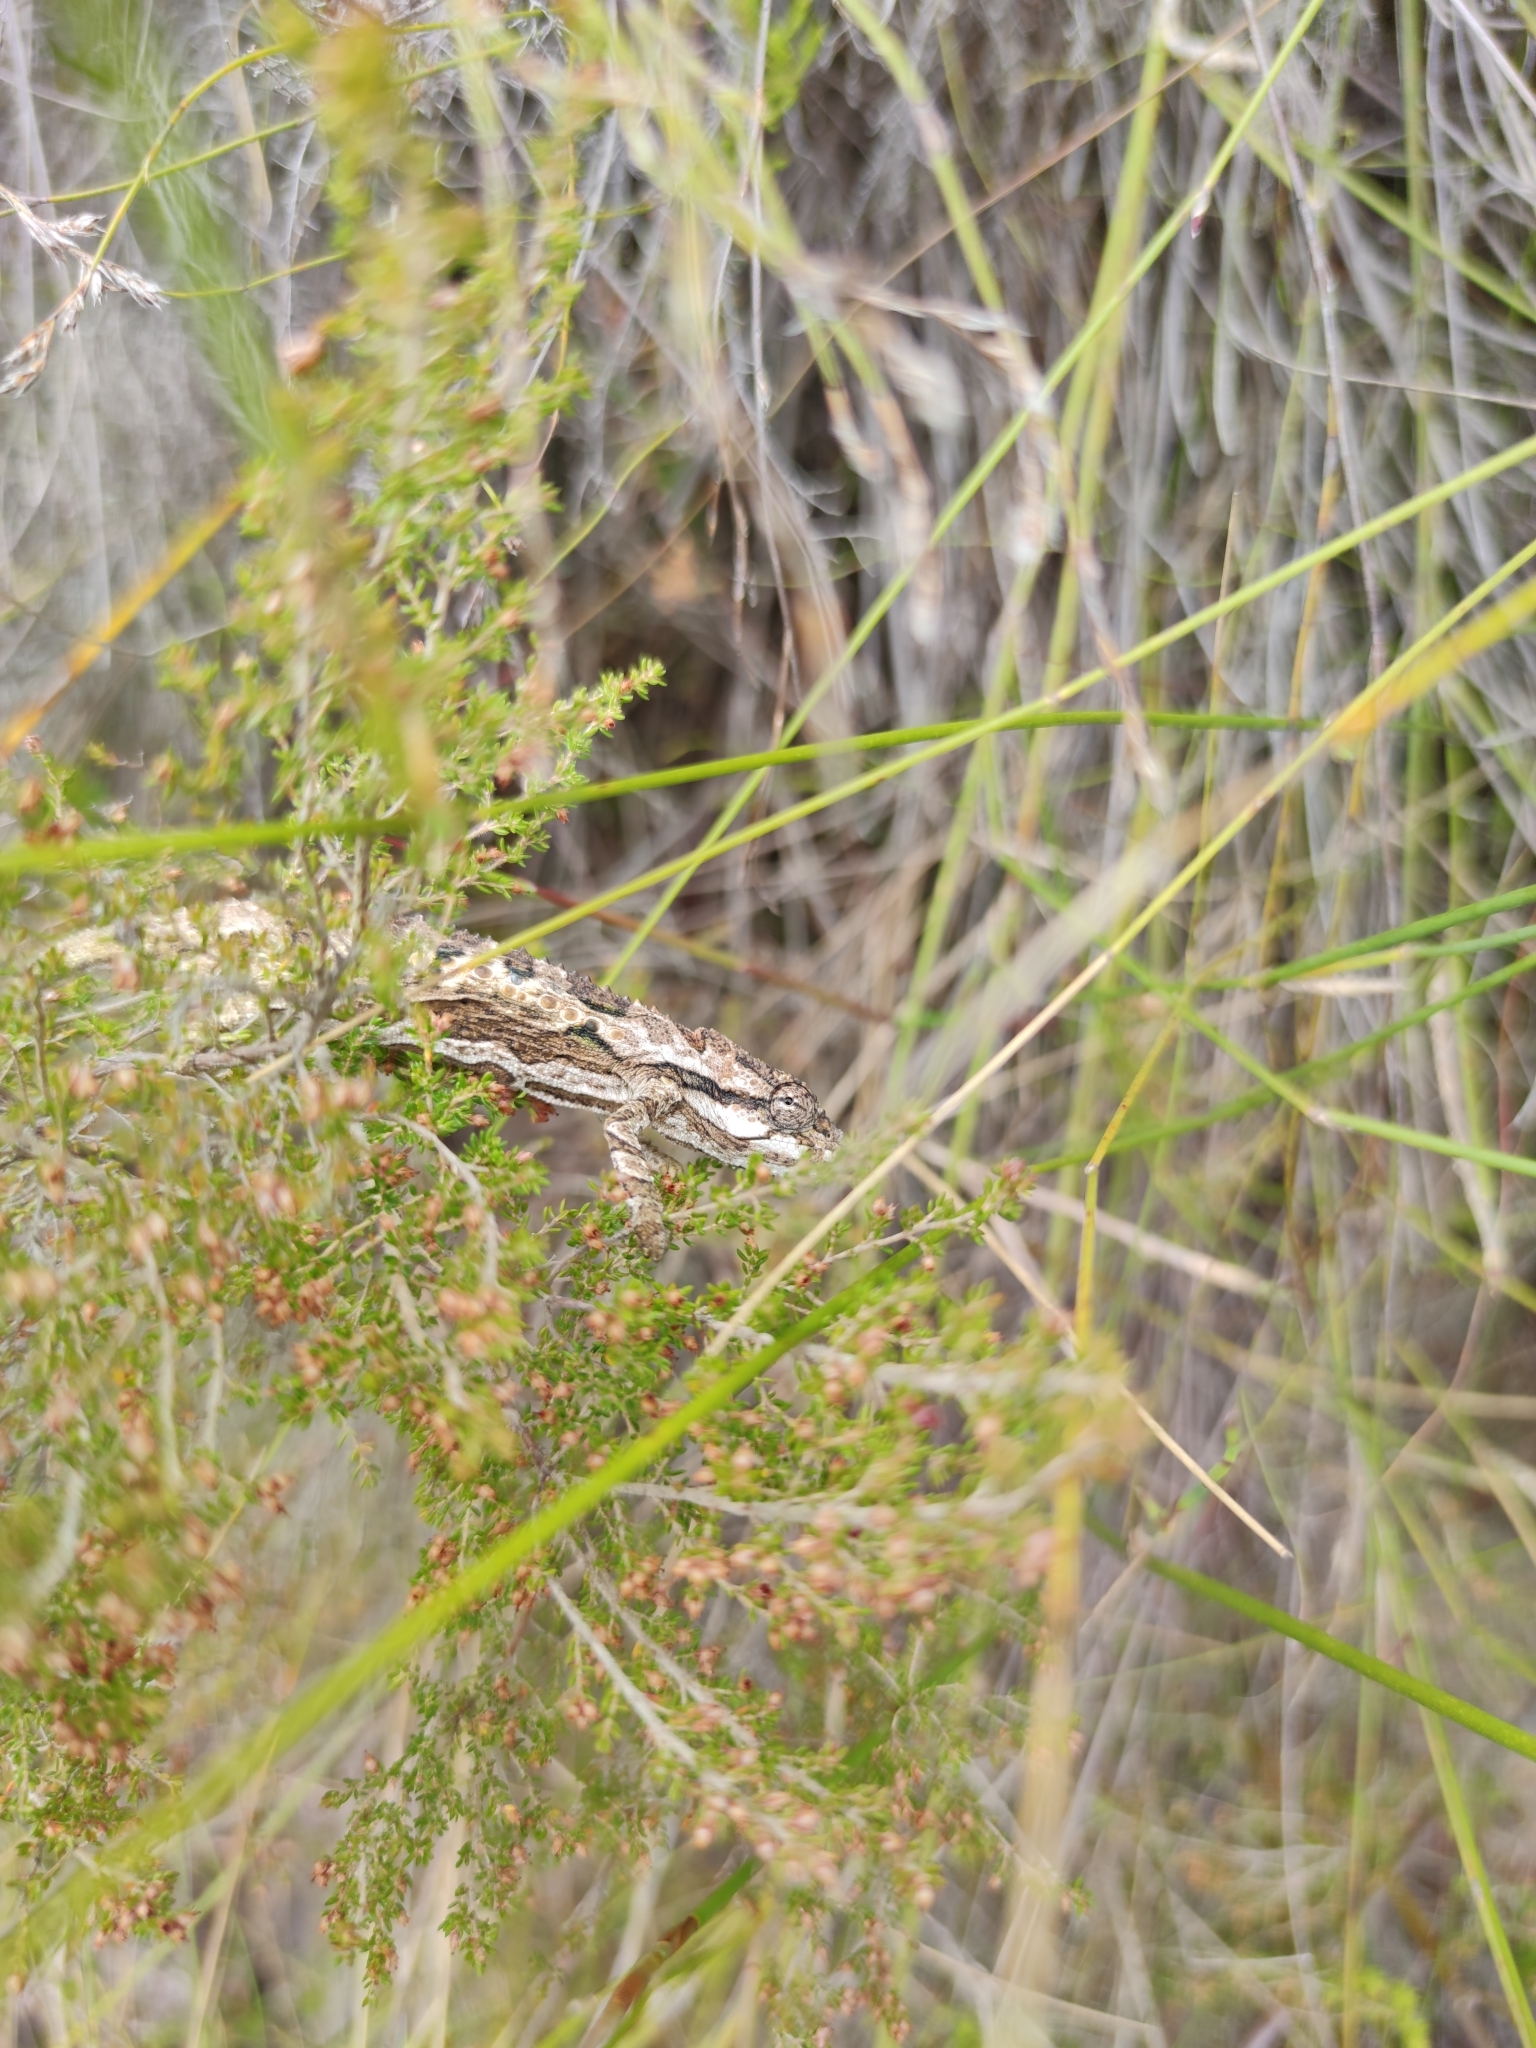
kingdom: Animalia
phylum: Chordata
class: Squamata
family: Chamaeleonidae
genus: Bradypodion
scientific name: Bradypodion gutturale
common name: Little karoo dwarf chameleon
